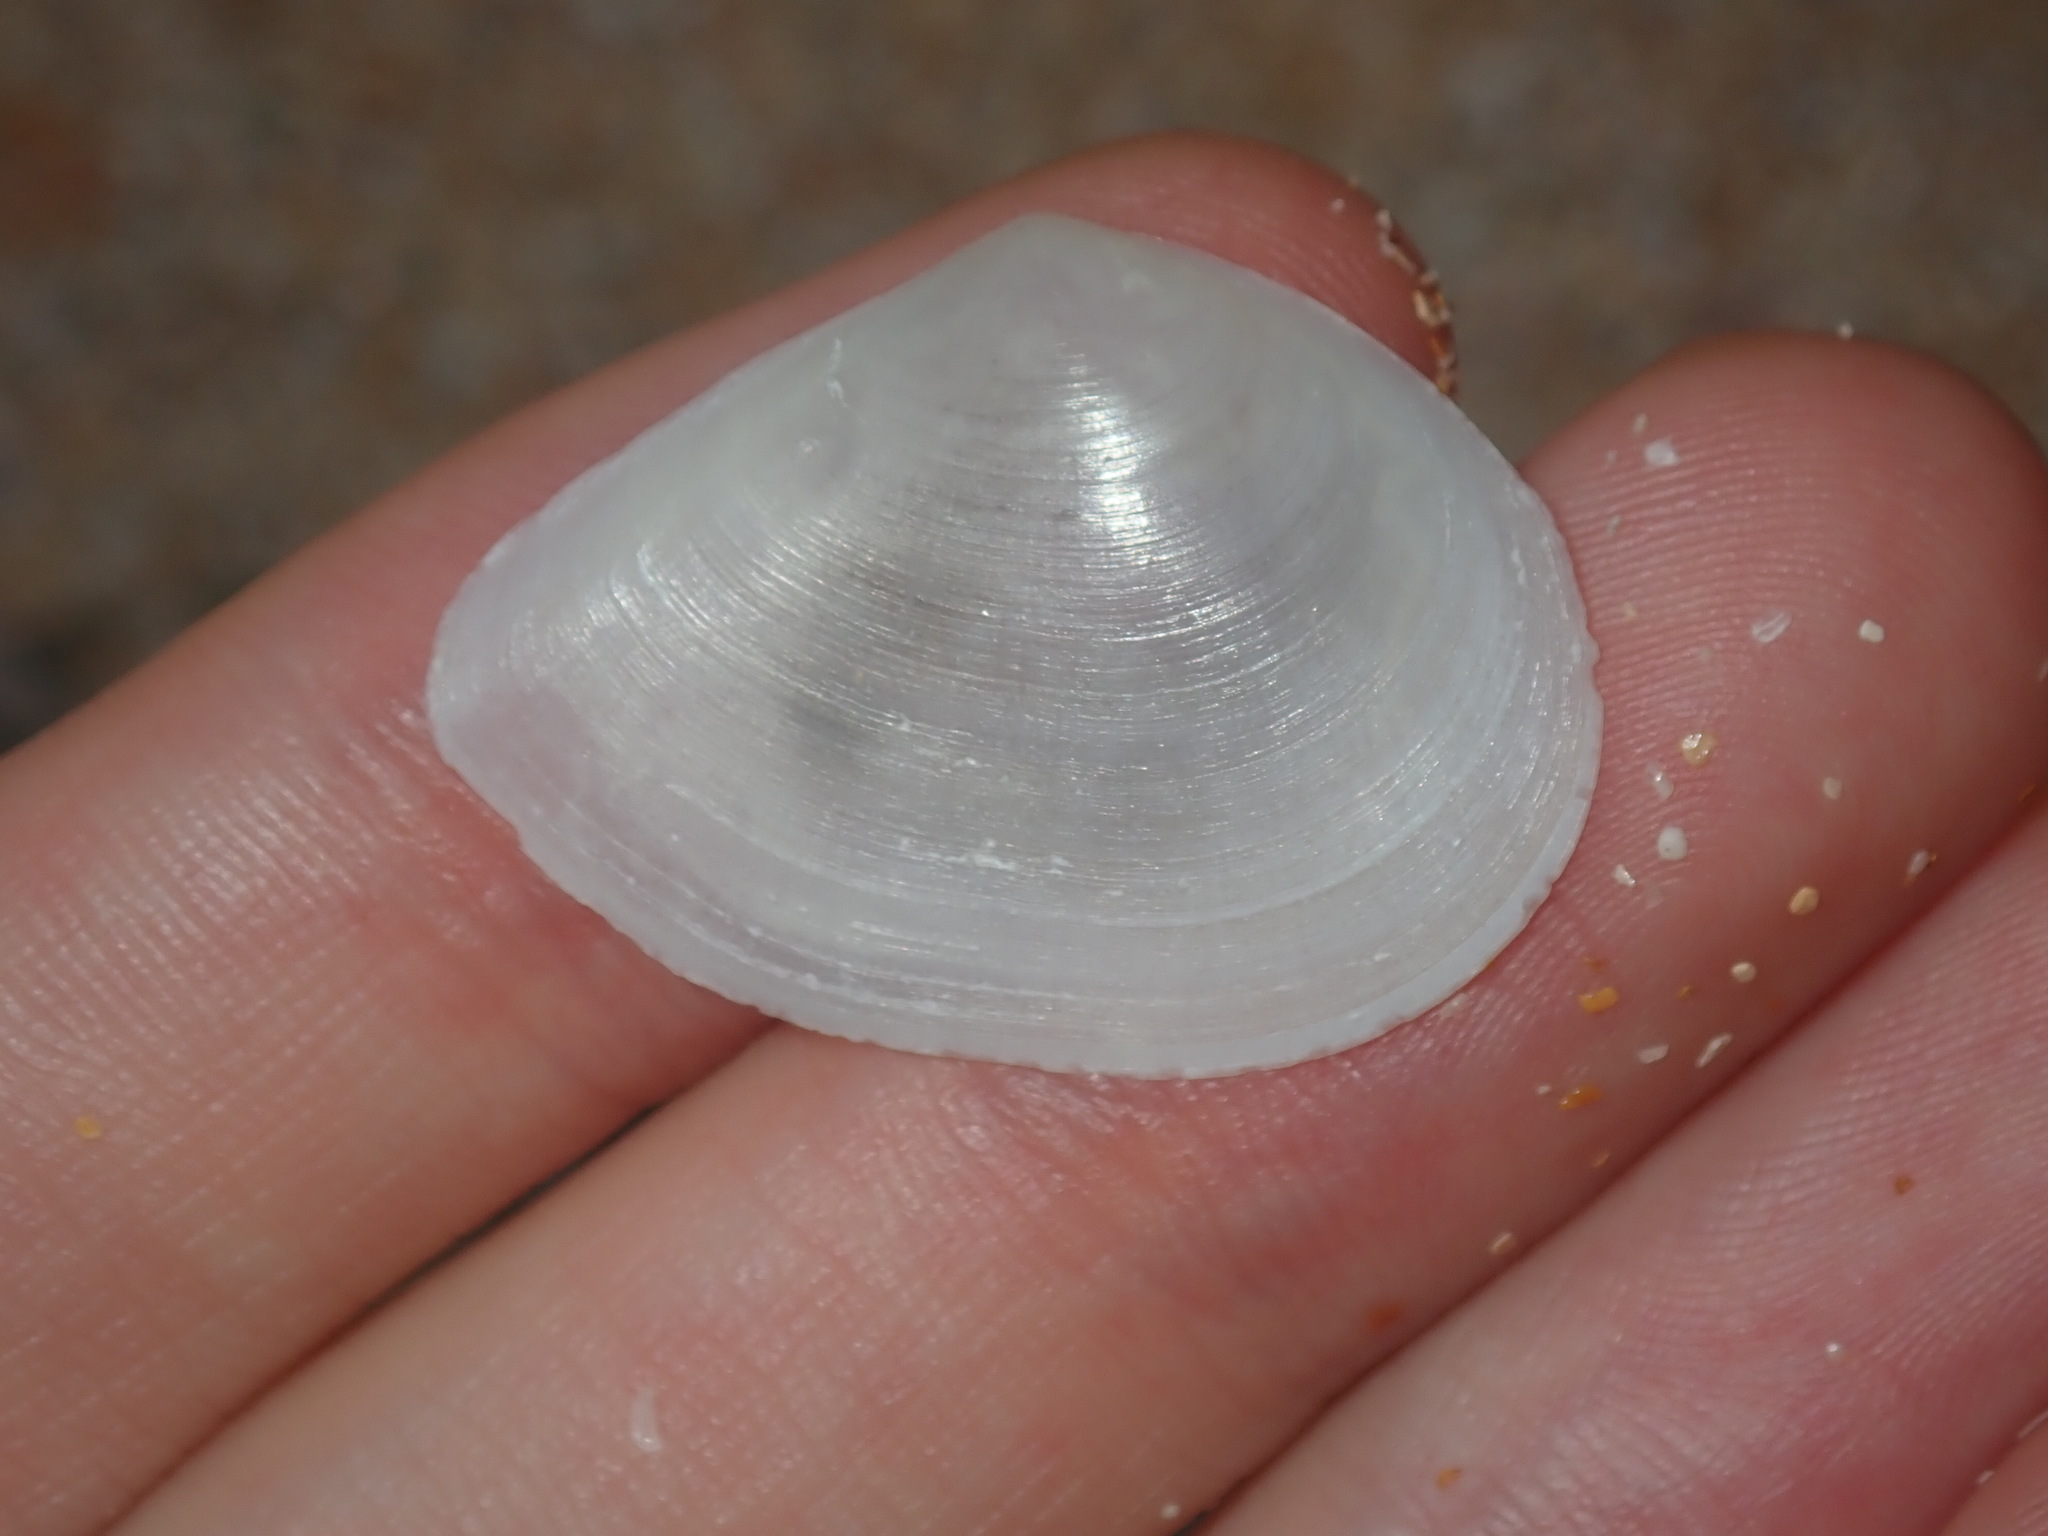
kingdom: Animalia
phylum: Mollusca
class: Bivalvia
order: Cardiida
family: Tellinidae
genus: Macomona
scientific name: Macomona deltoidalis
